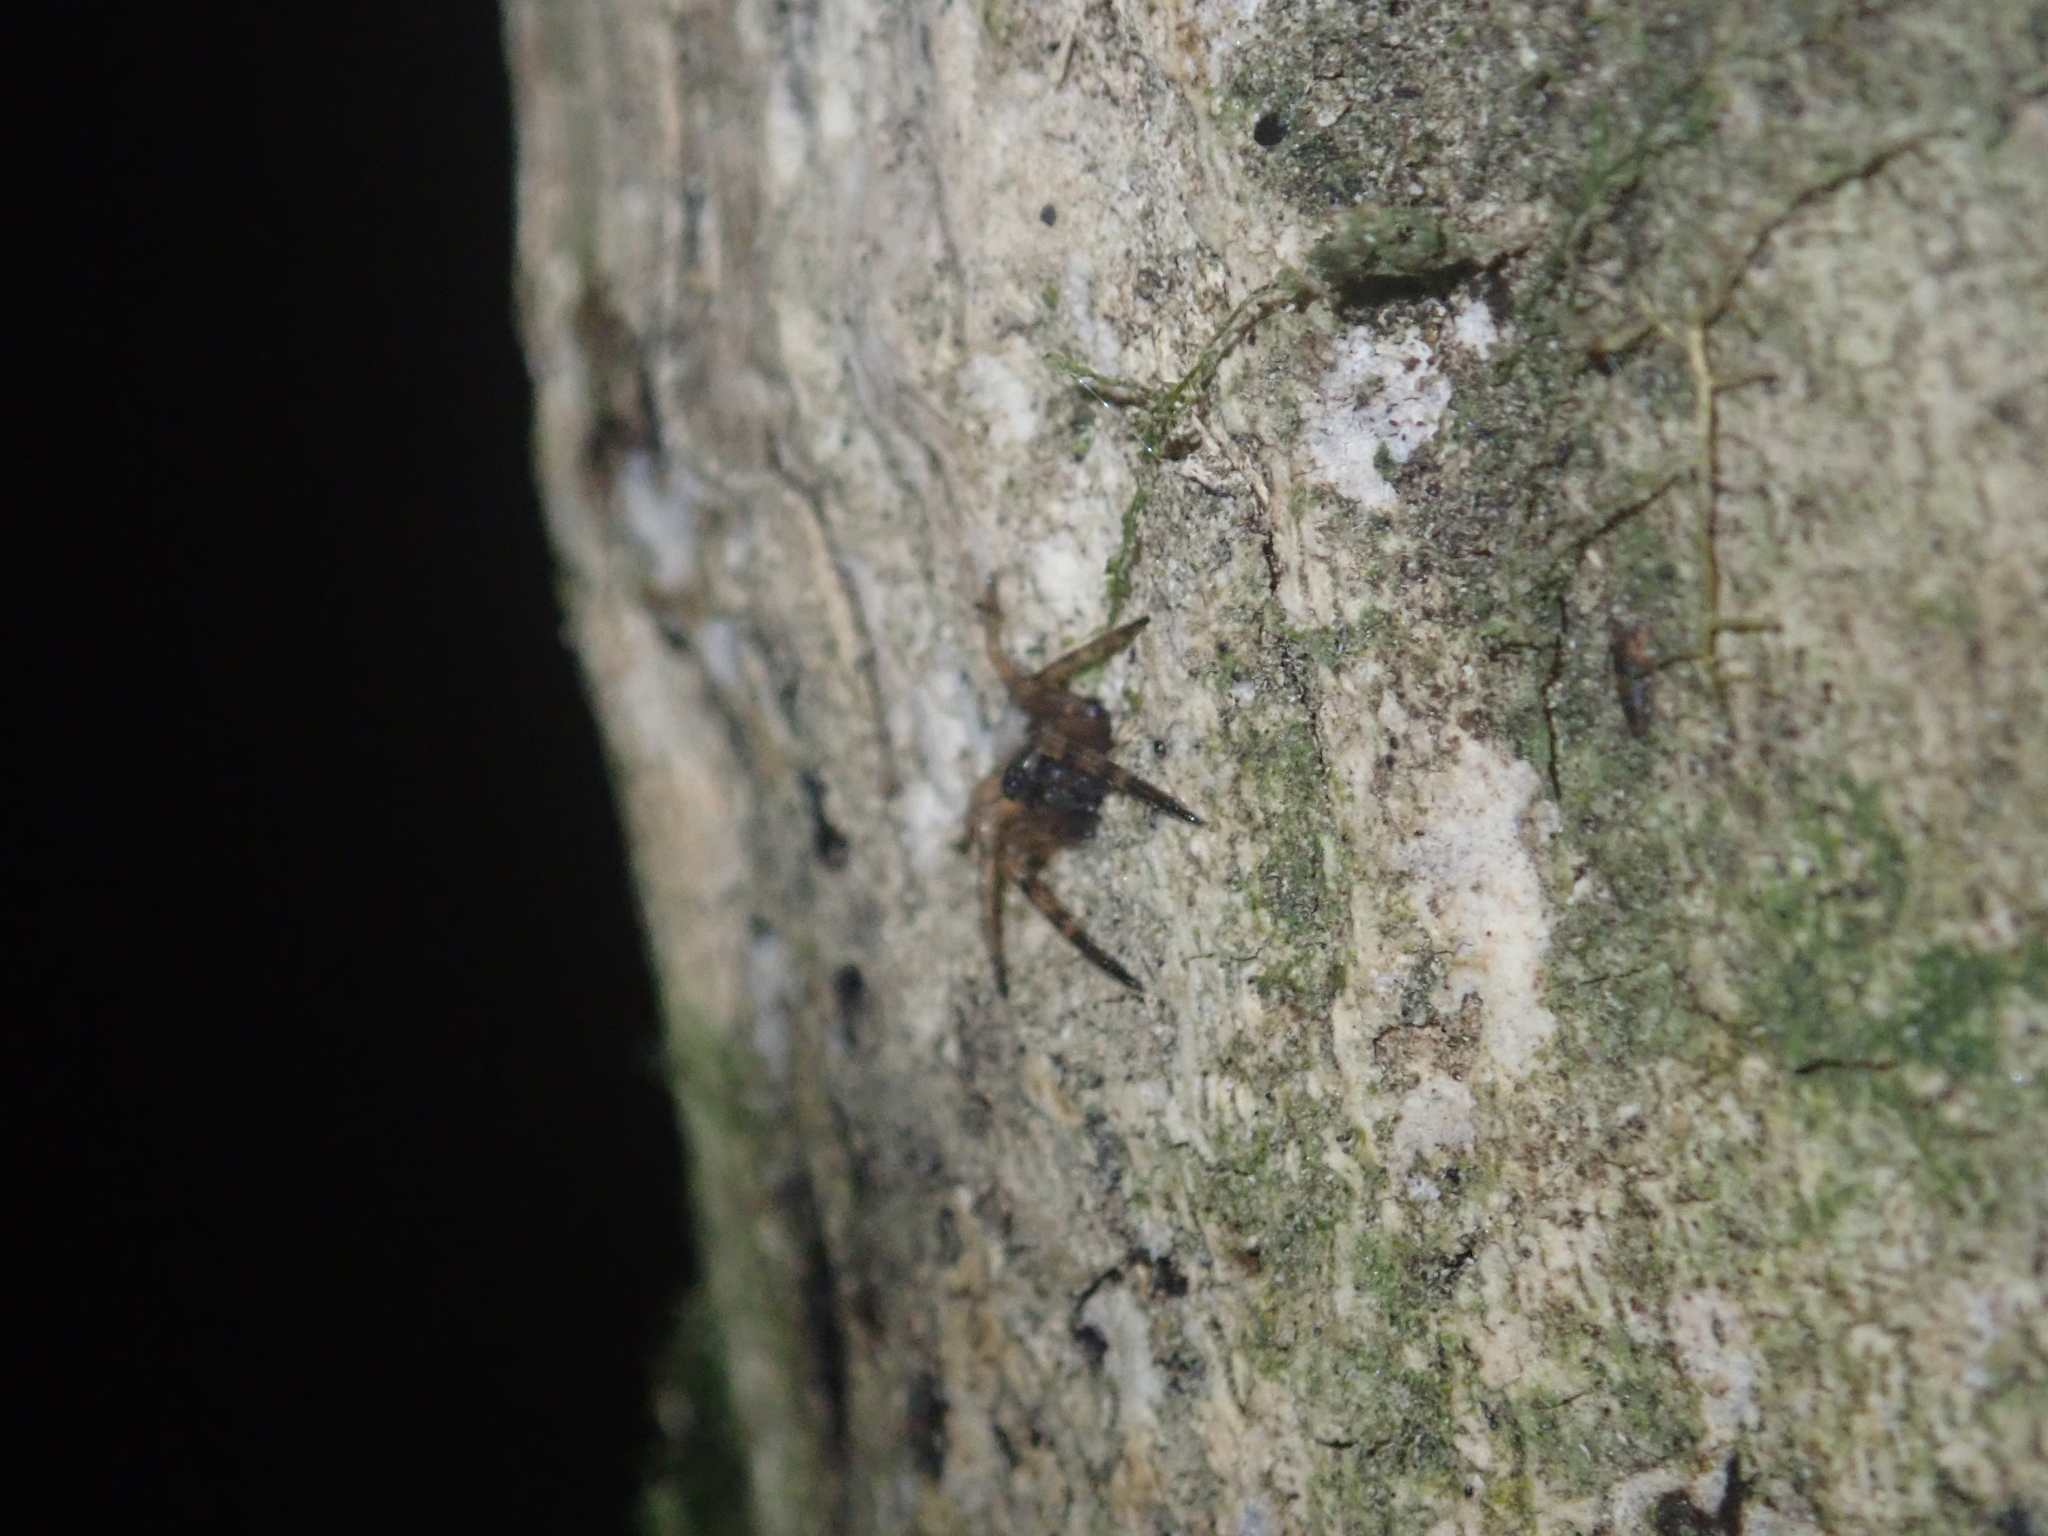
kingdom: Animalia
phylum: Arthropoda
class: Arachnida
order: Araneae
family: Cycloctenidae
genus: Plectophanes
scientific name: Plectophanes
